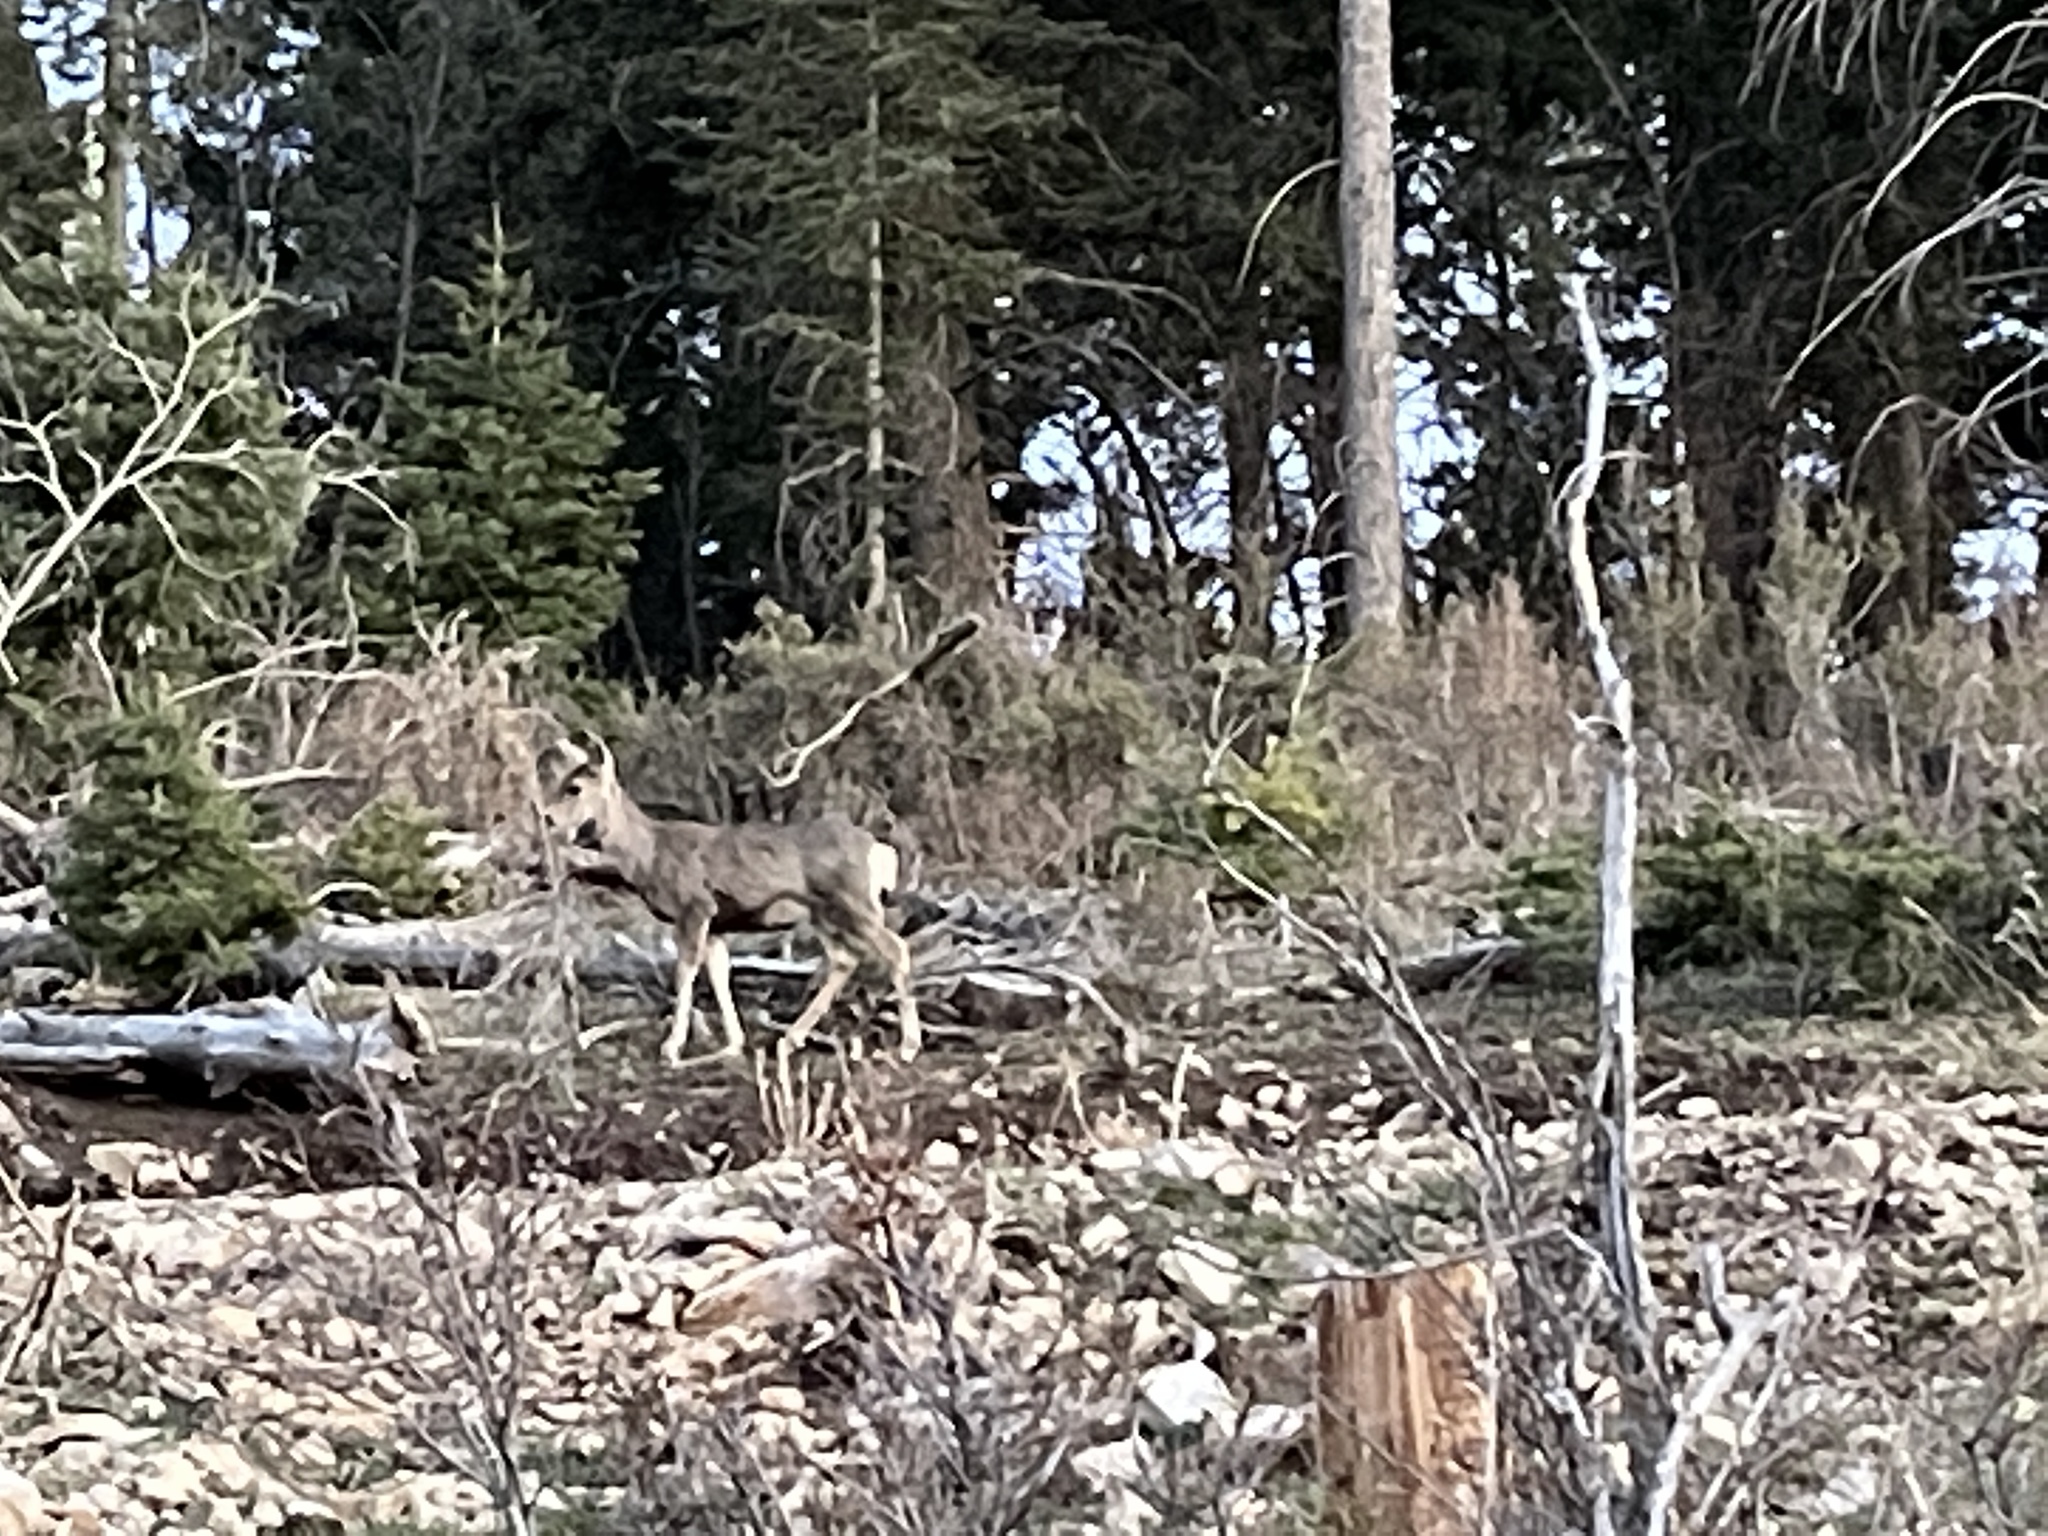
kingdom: Animalia
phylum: Chordata
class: Mammalia
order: Artiodactyla
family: Cervidae
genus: Odocoileus
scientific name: Odocoileus hemionus
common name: Mule deer
